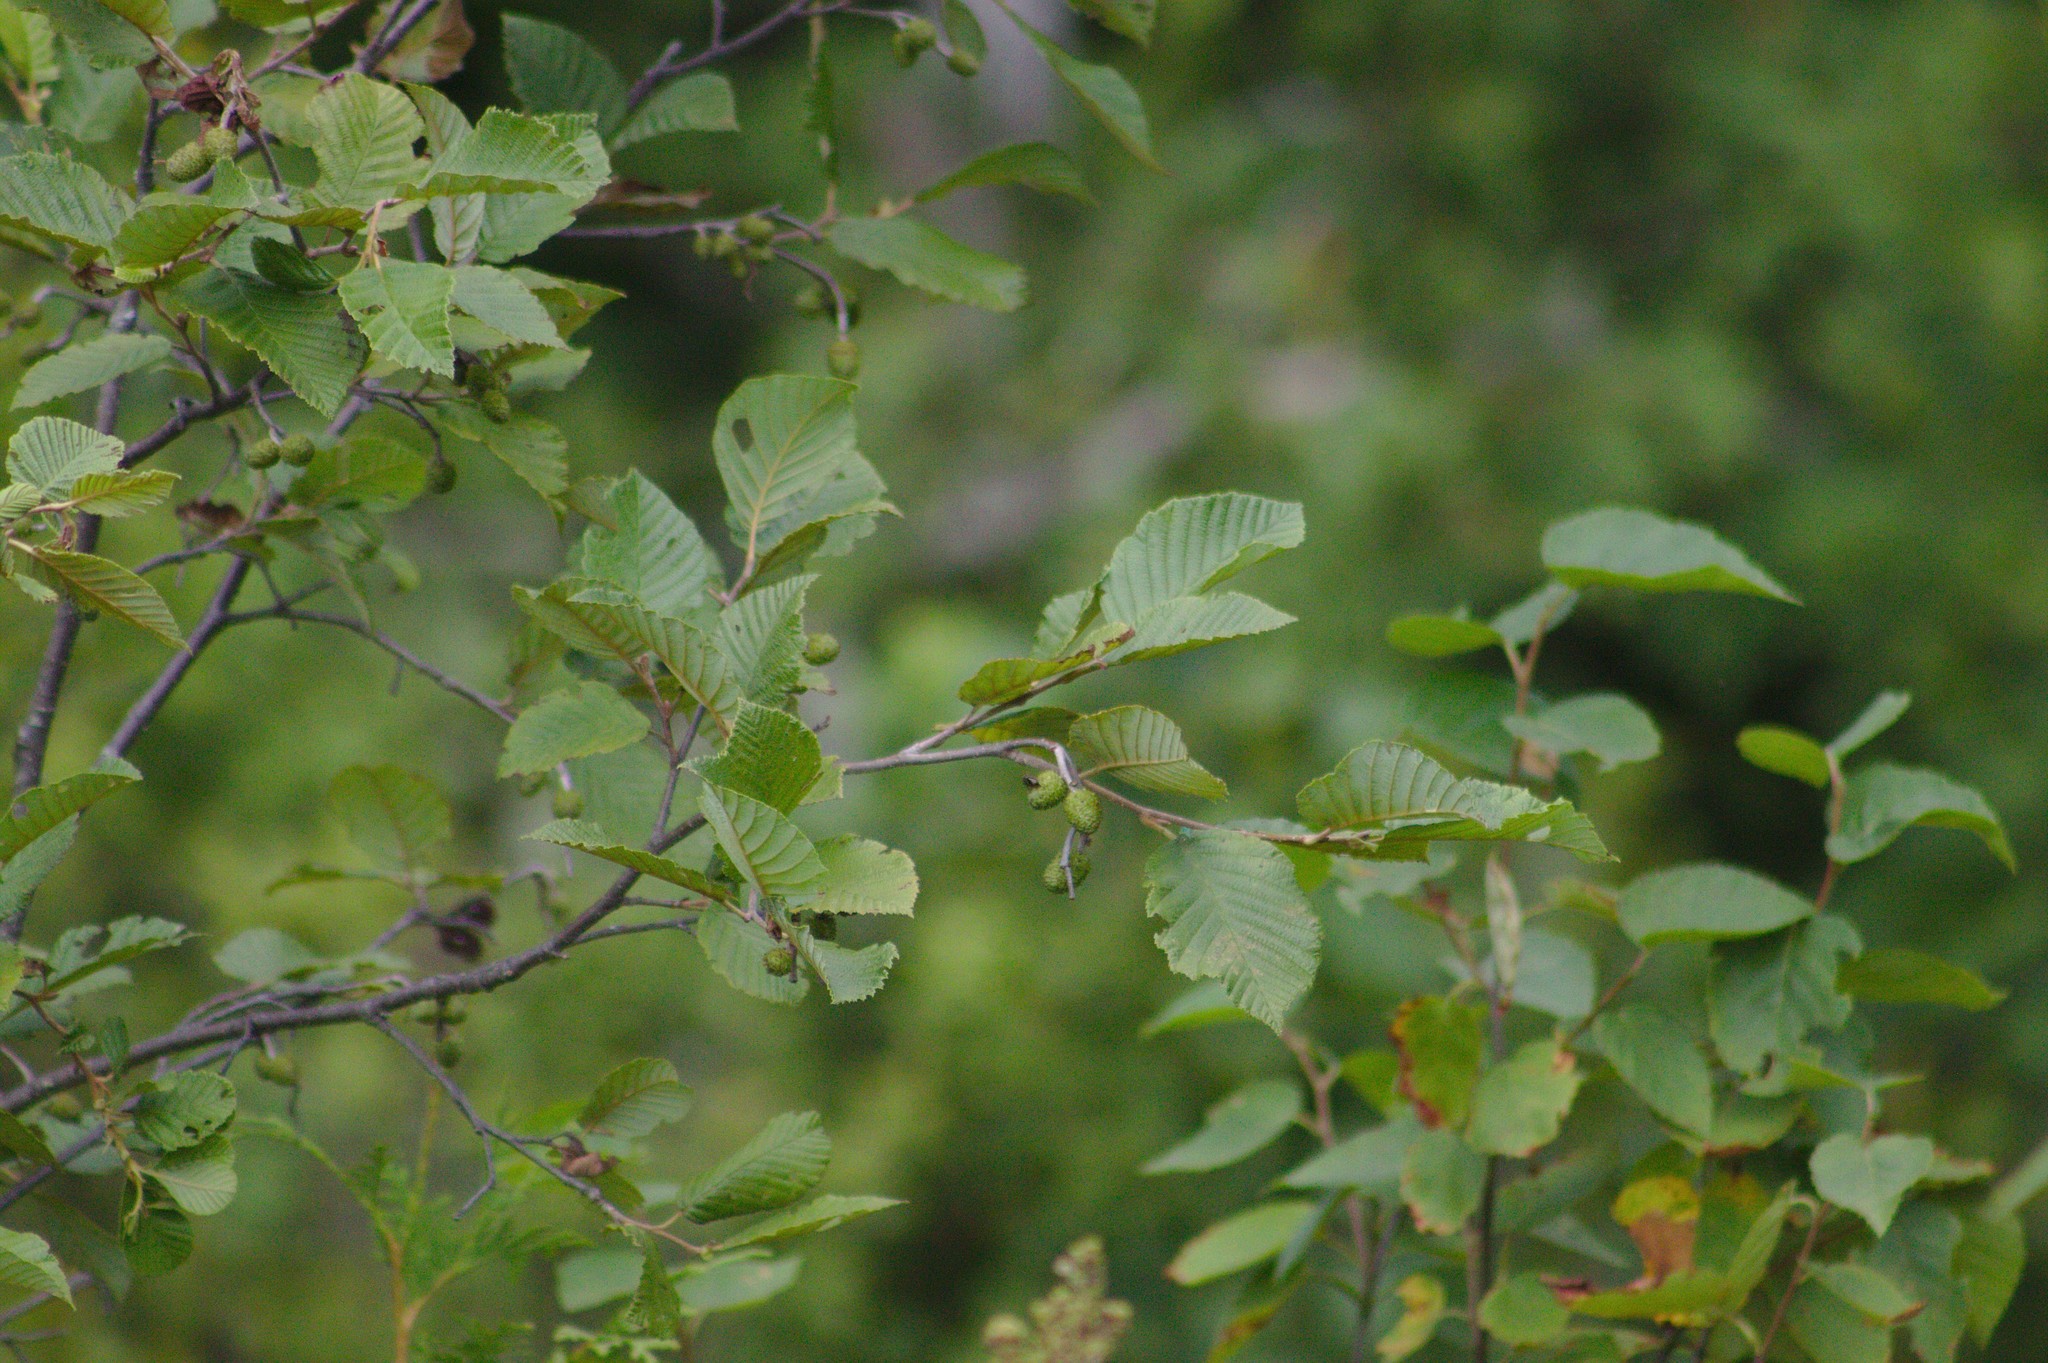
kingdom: Plantae
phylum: Tracheophyta
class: Magnoliopsida
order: Fagales
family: Betulaceae
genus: Alnus
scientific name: Alnus incana
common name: Grey alder
